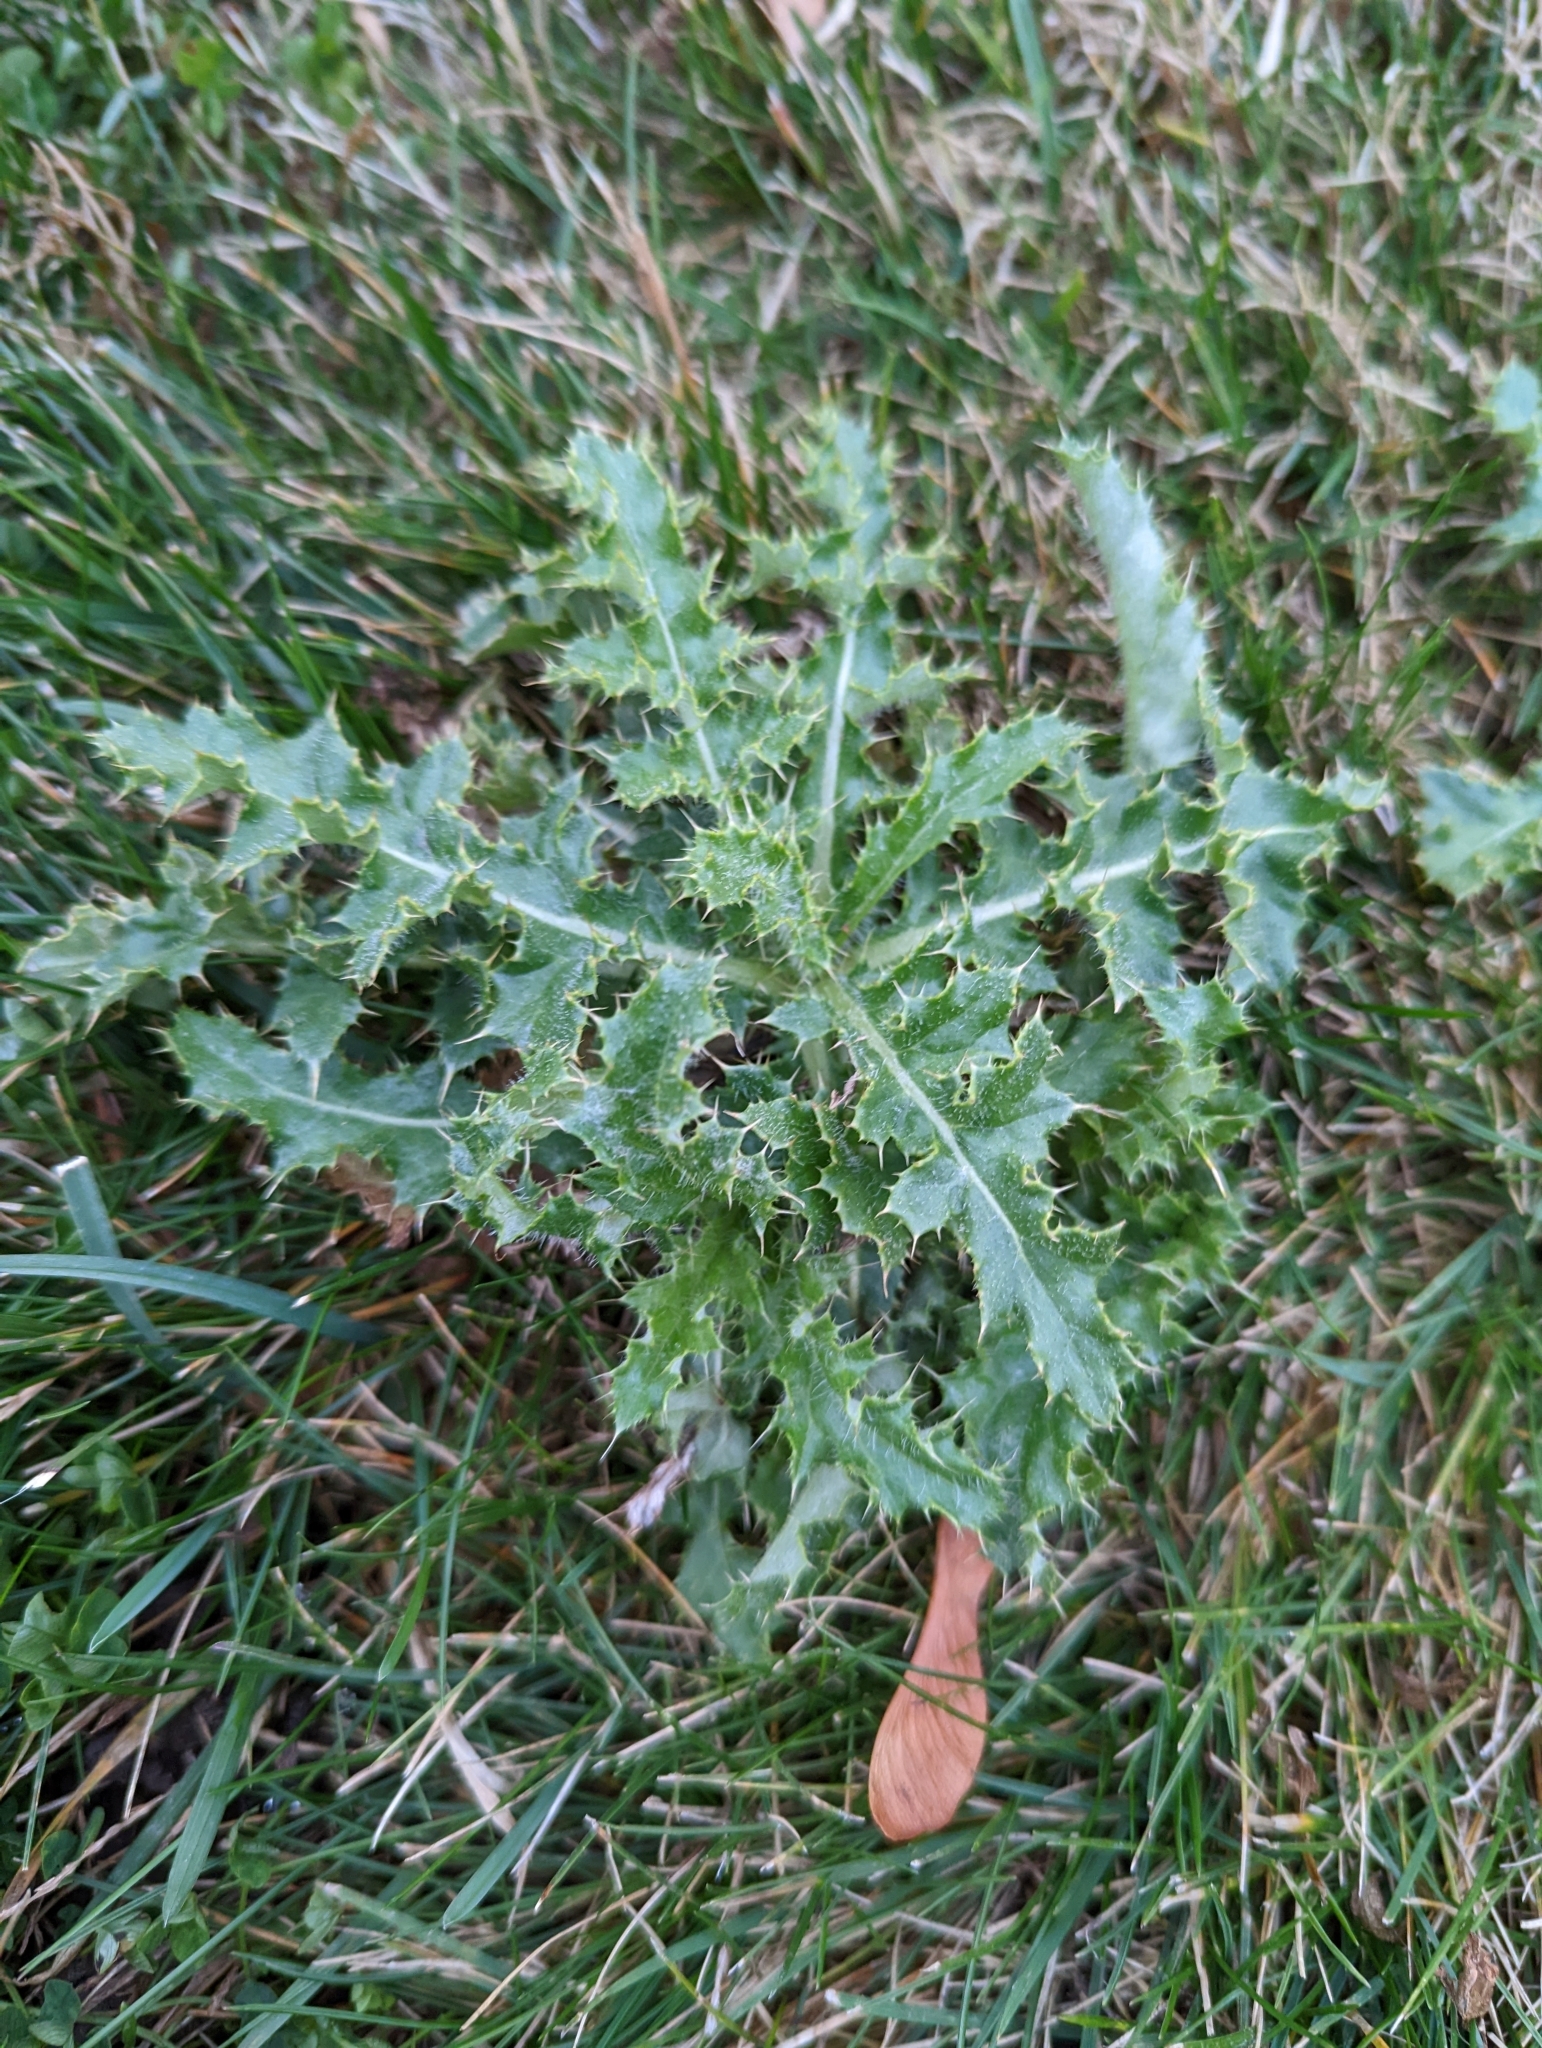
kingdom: Plantae
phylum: Tracheophyta
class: Magnoliopsida
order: Asterales
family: Asteraceae
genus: Cirsium
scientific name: Cirsium arvense
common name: Creeping thistle
